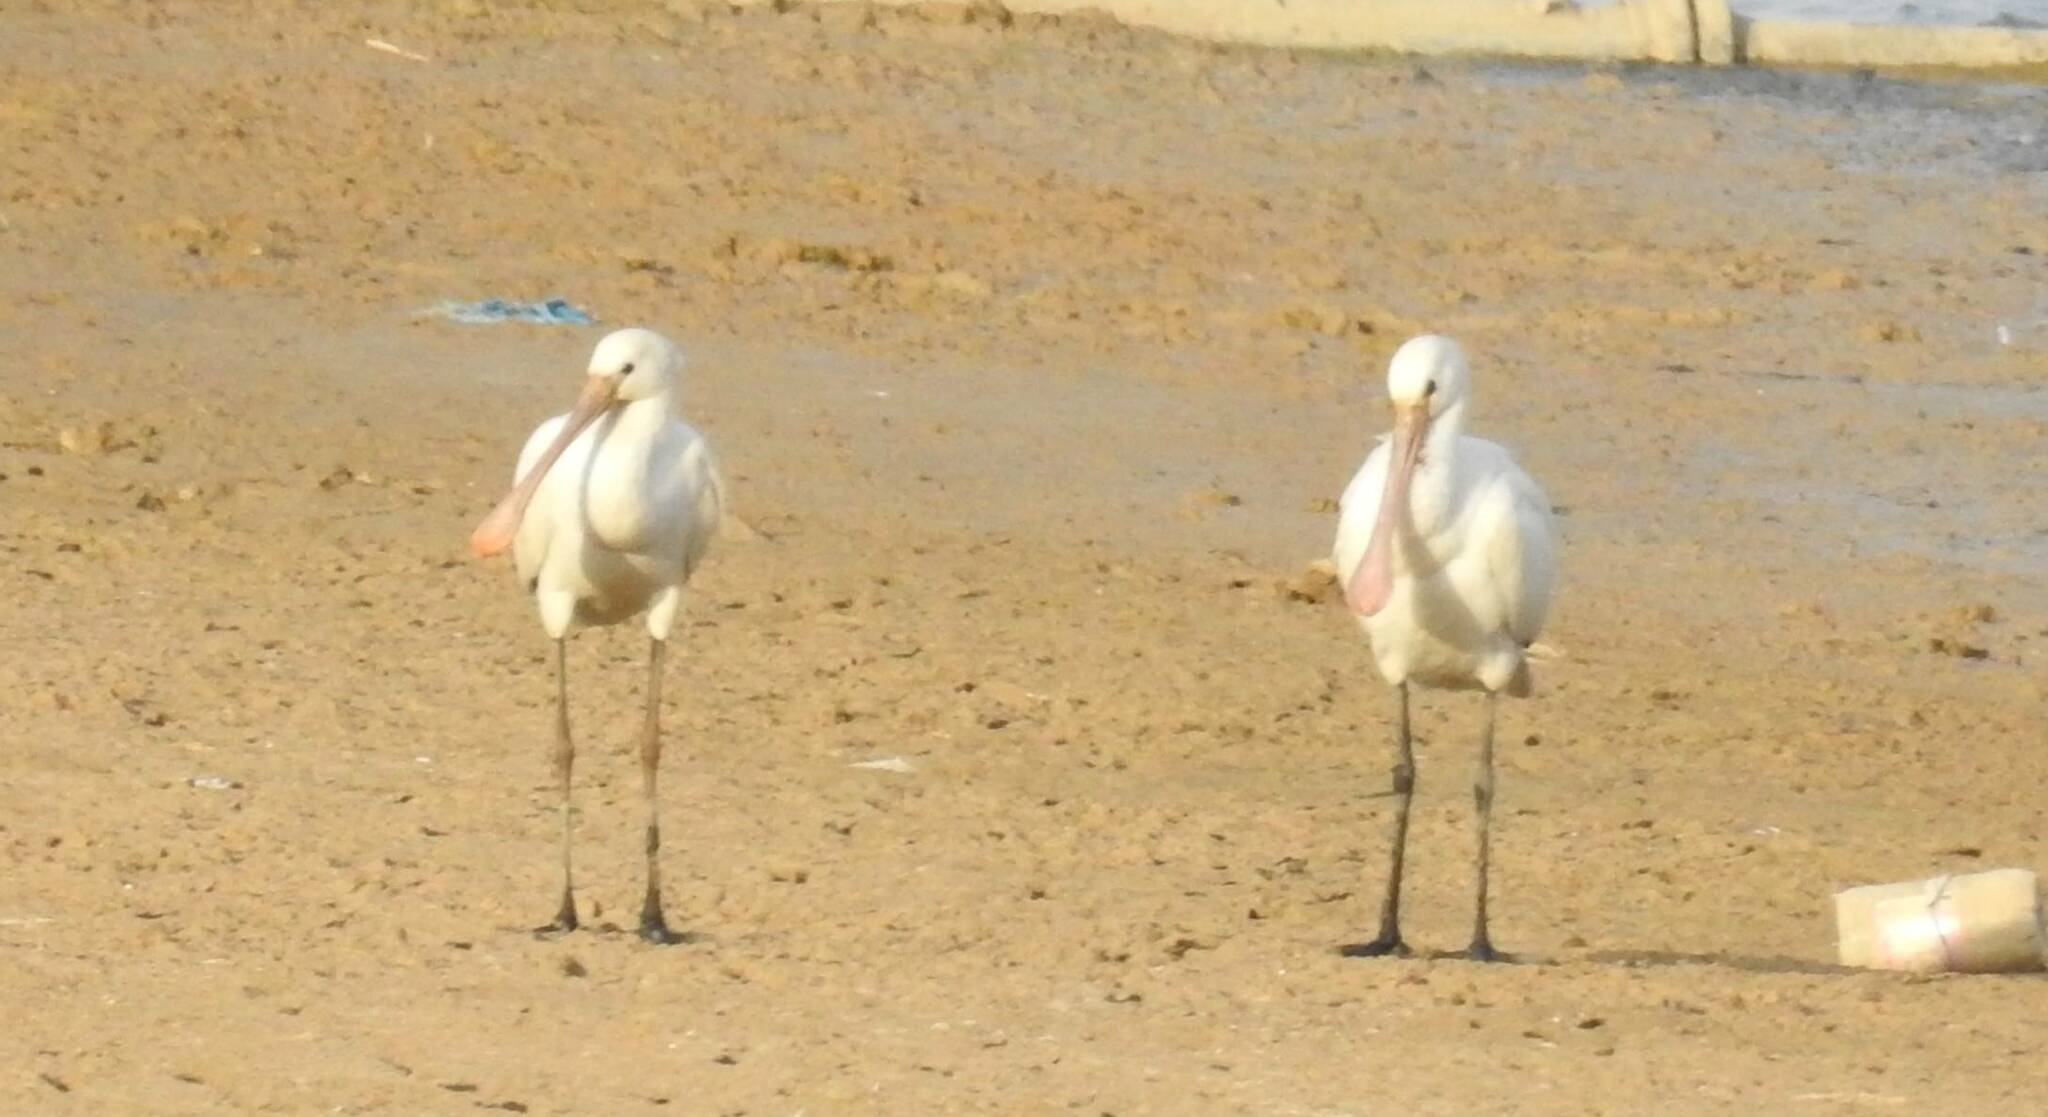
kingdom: Animalia
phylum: Chordata
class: Aves
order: Pelecaniformes
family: Threskiornithidae
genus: Platalea
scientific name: Platalea leucorodia
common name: Eurasian spoonbill
